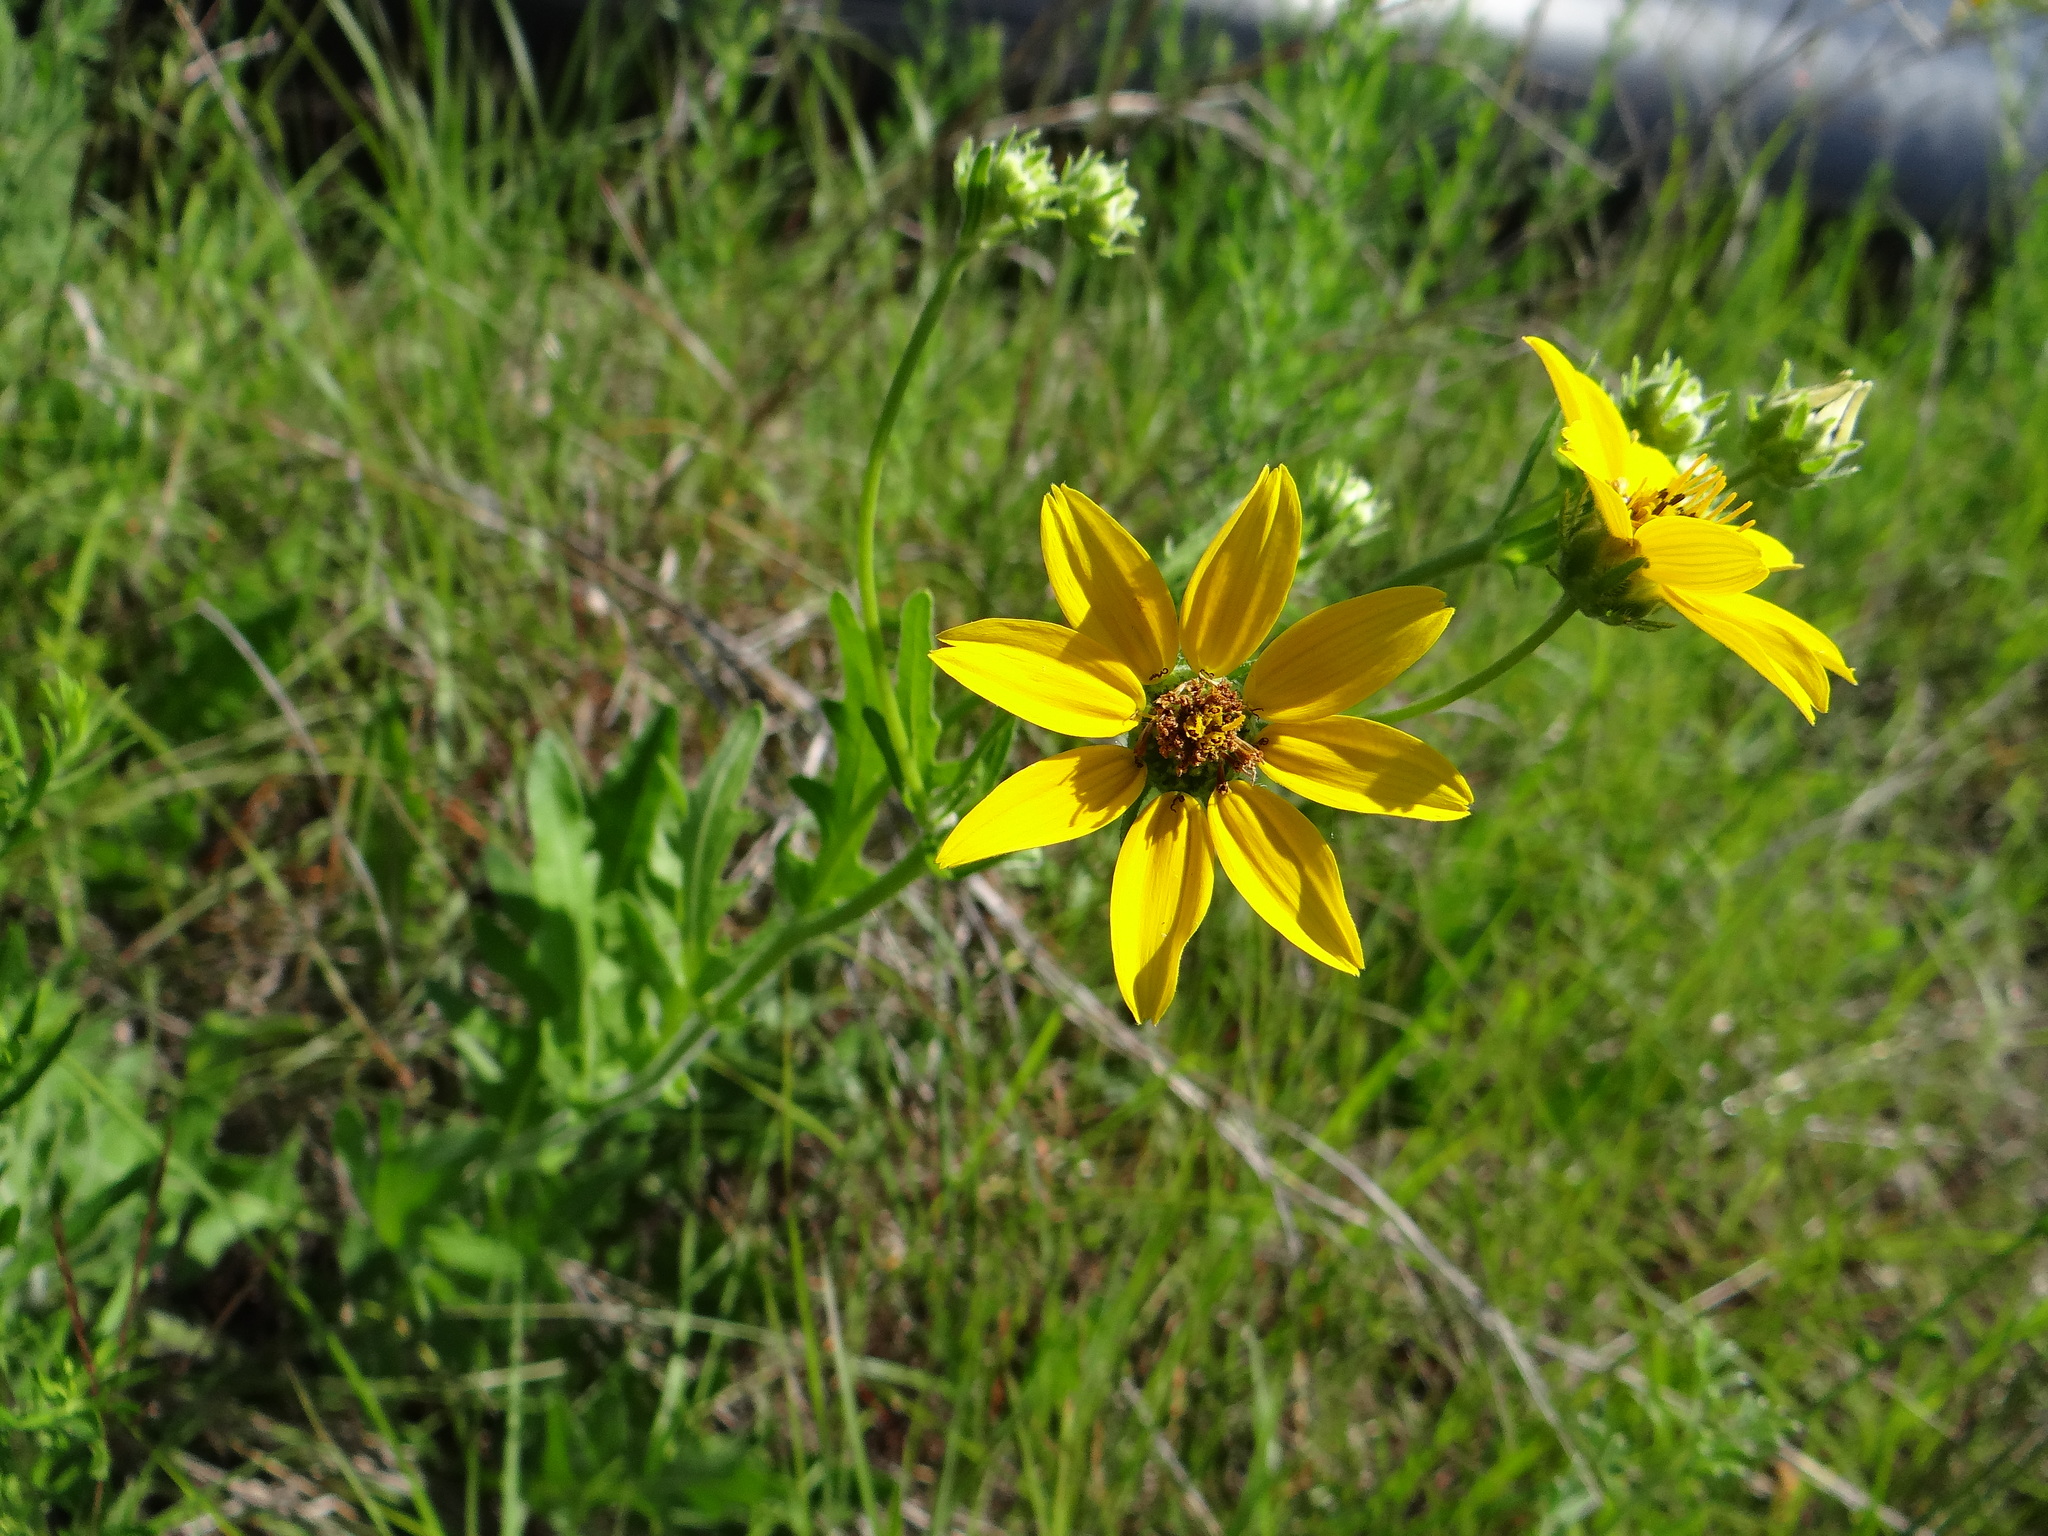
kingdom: Plantae
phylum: Tracheophyta
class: Magnoliopsida
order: Asterales
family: Asteraceae
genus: Engelmannia
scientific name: Engelmannia peristenia
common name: Engelmann's daisy
